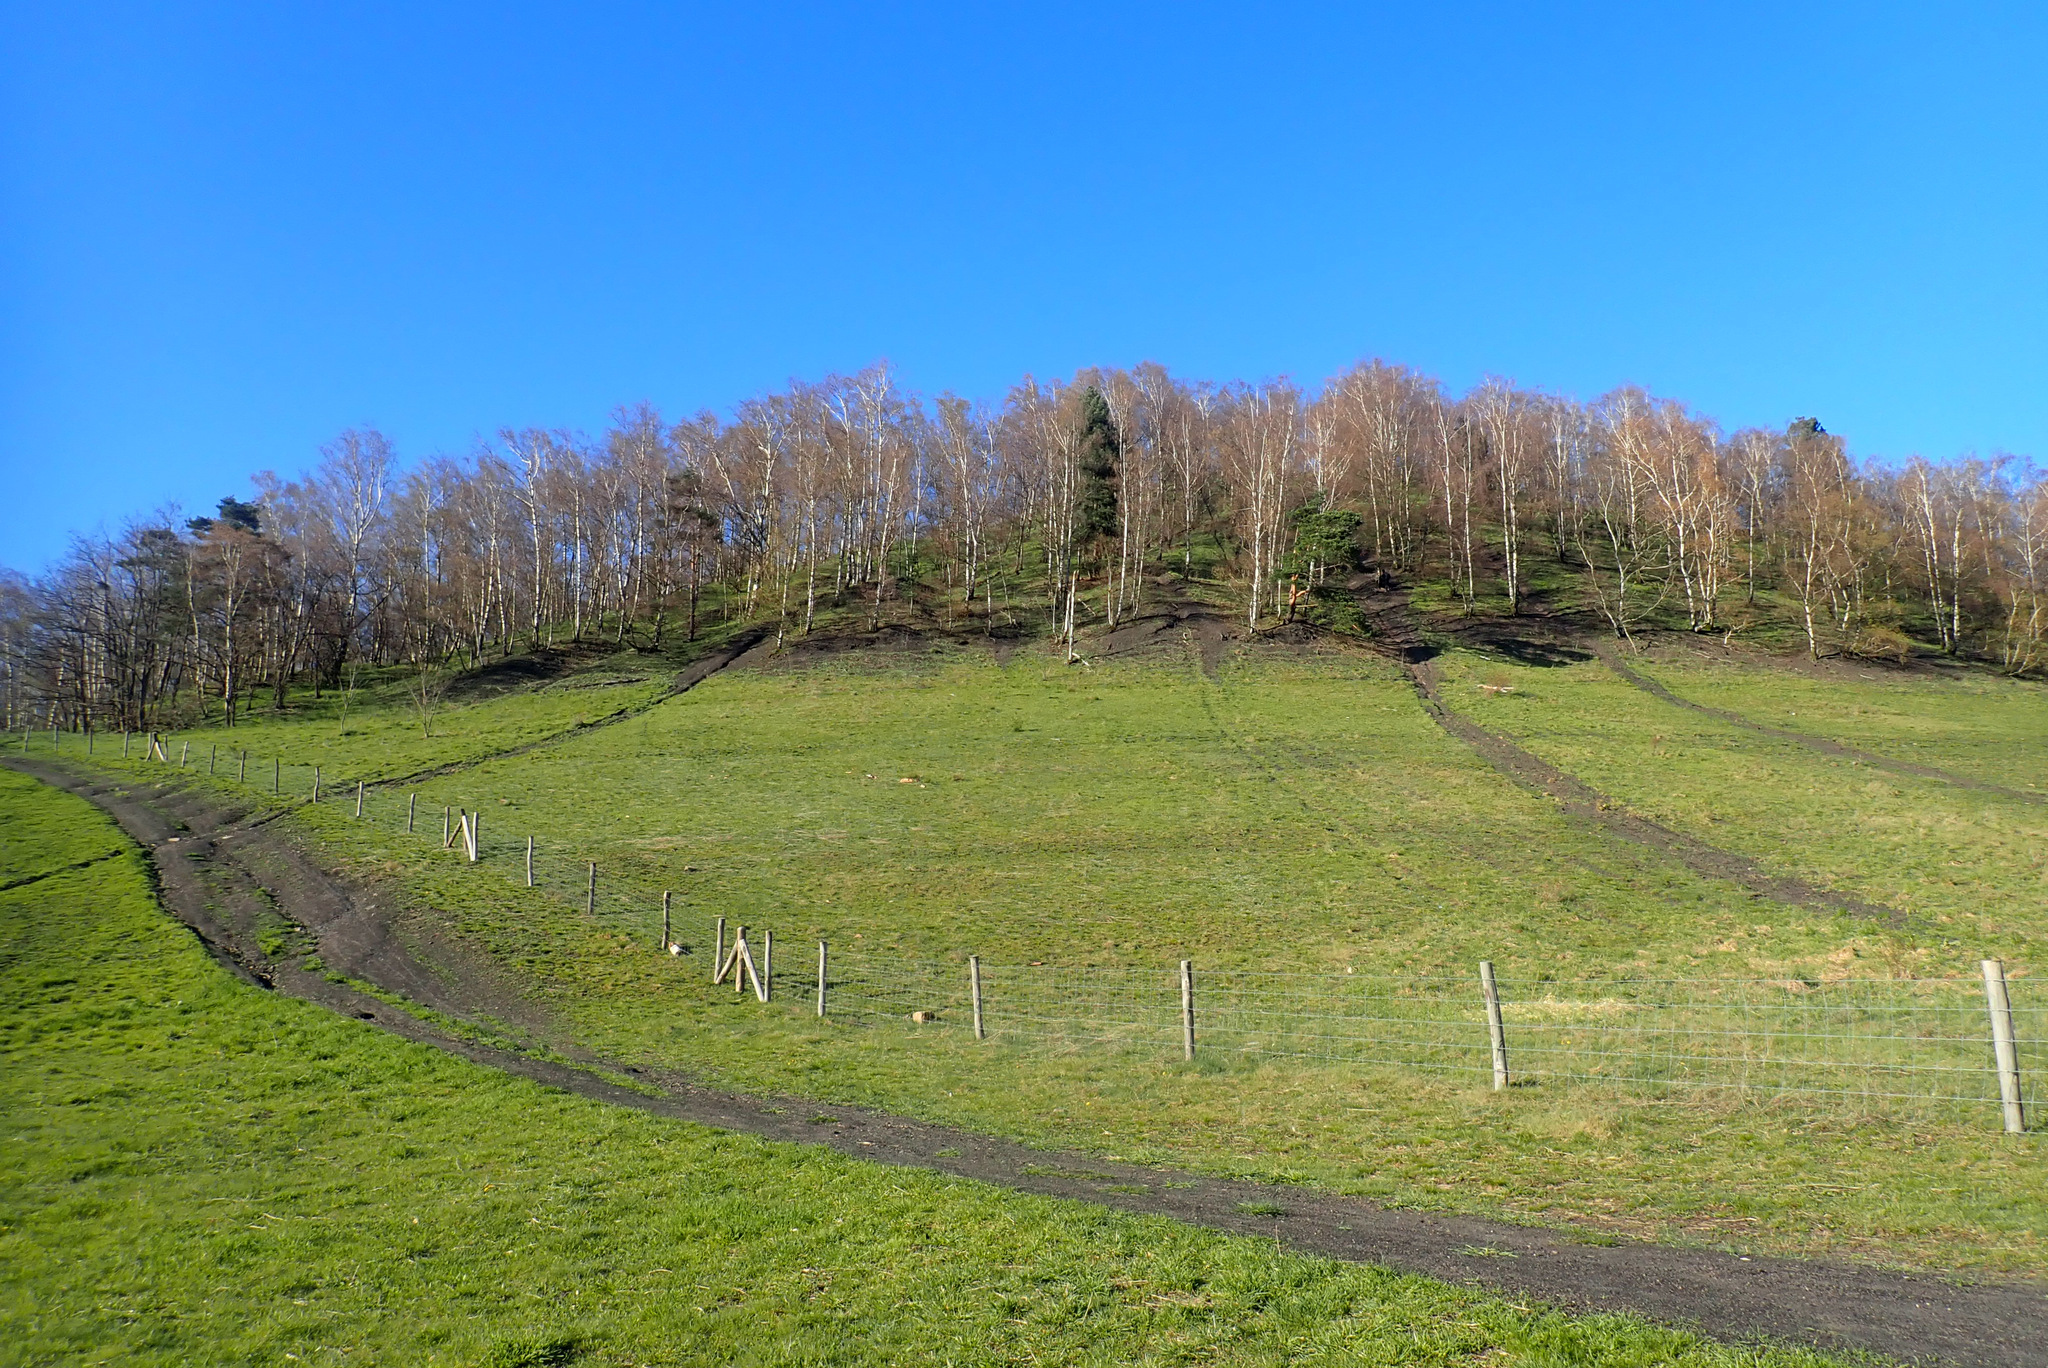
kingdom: Plantae
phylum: Tracheophyta
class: Magnoliopsida
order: Fagales
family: Betulaceae
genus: Betula
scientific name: Betula pendula
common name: Silver birch
